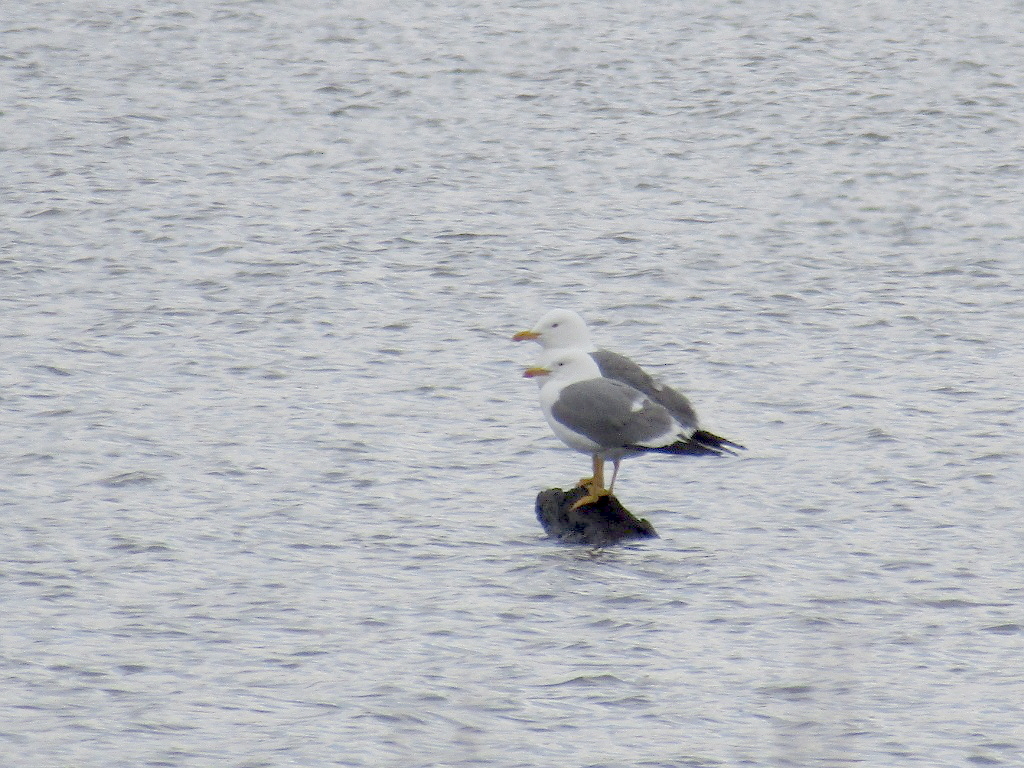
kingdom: Animalia
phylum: Chordata
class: Aves
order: Charadriiformes
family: Laridae
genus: Larus
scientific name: Larus fuscus
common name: Lesser black-backed gull
